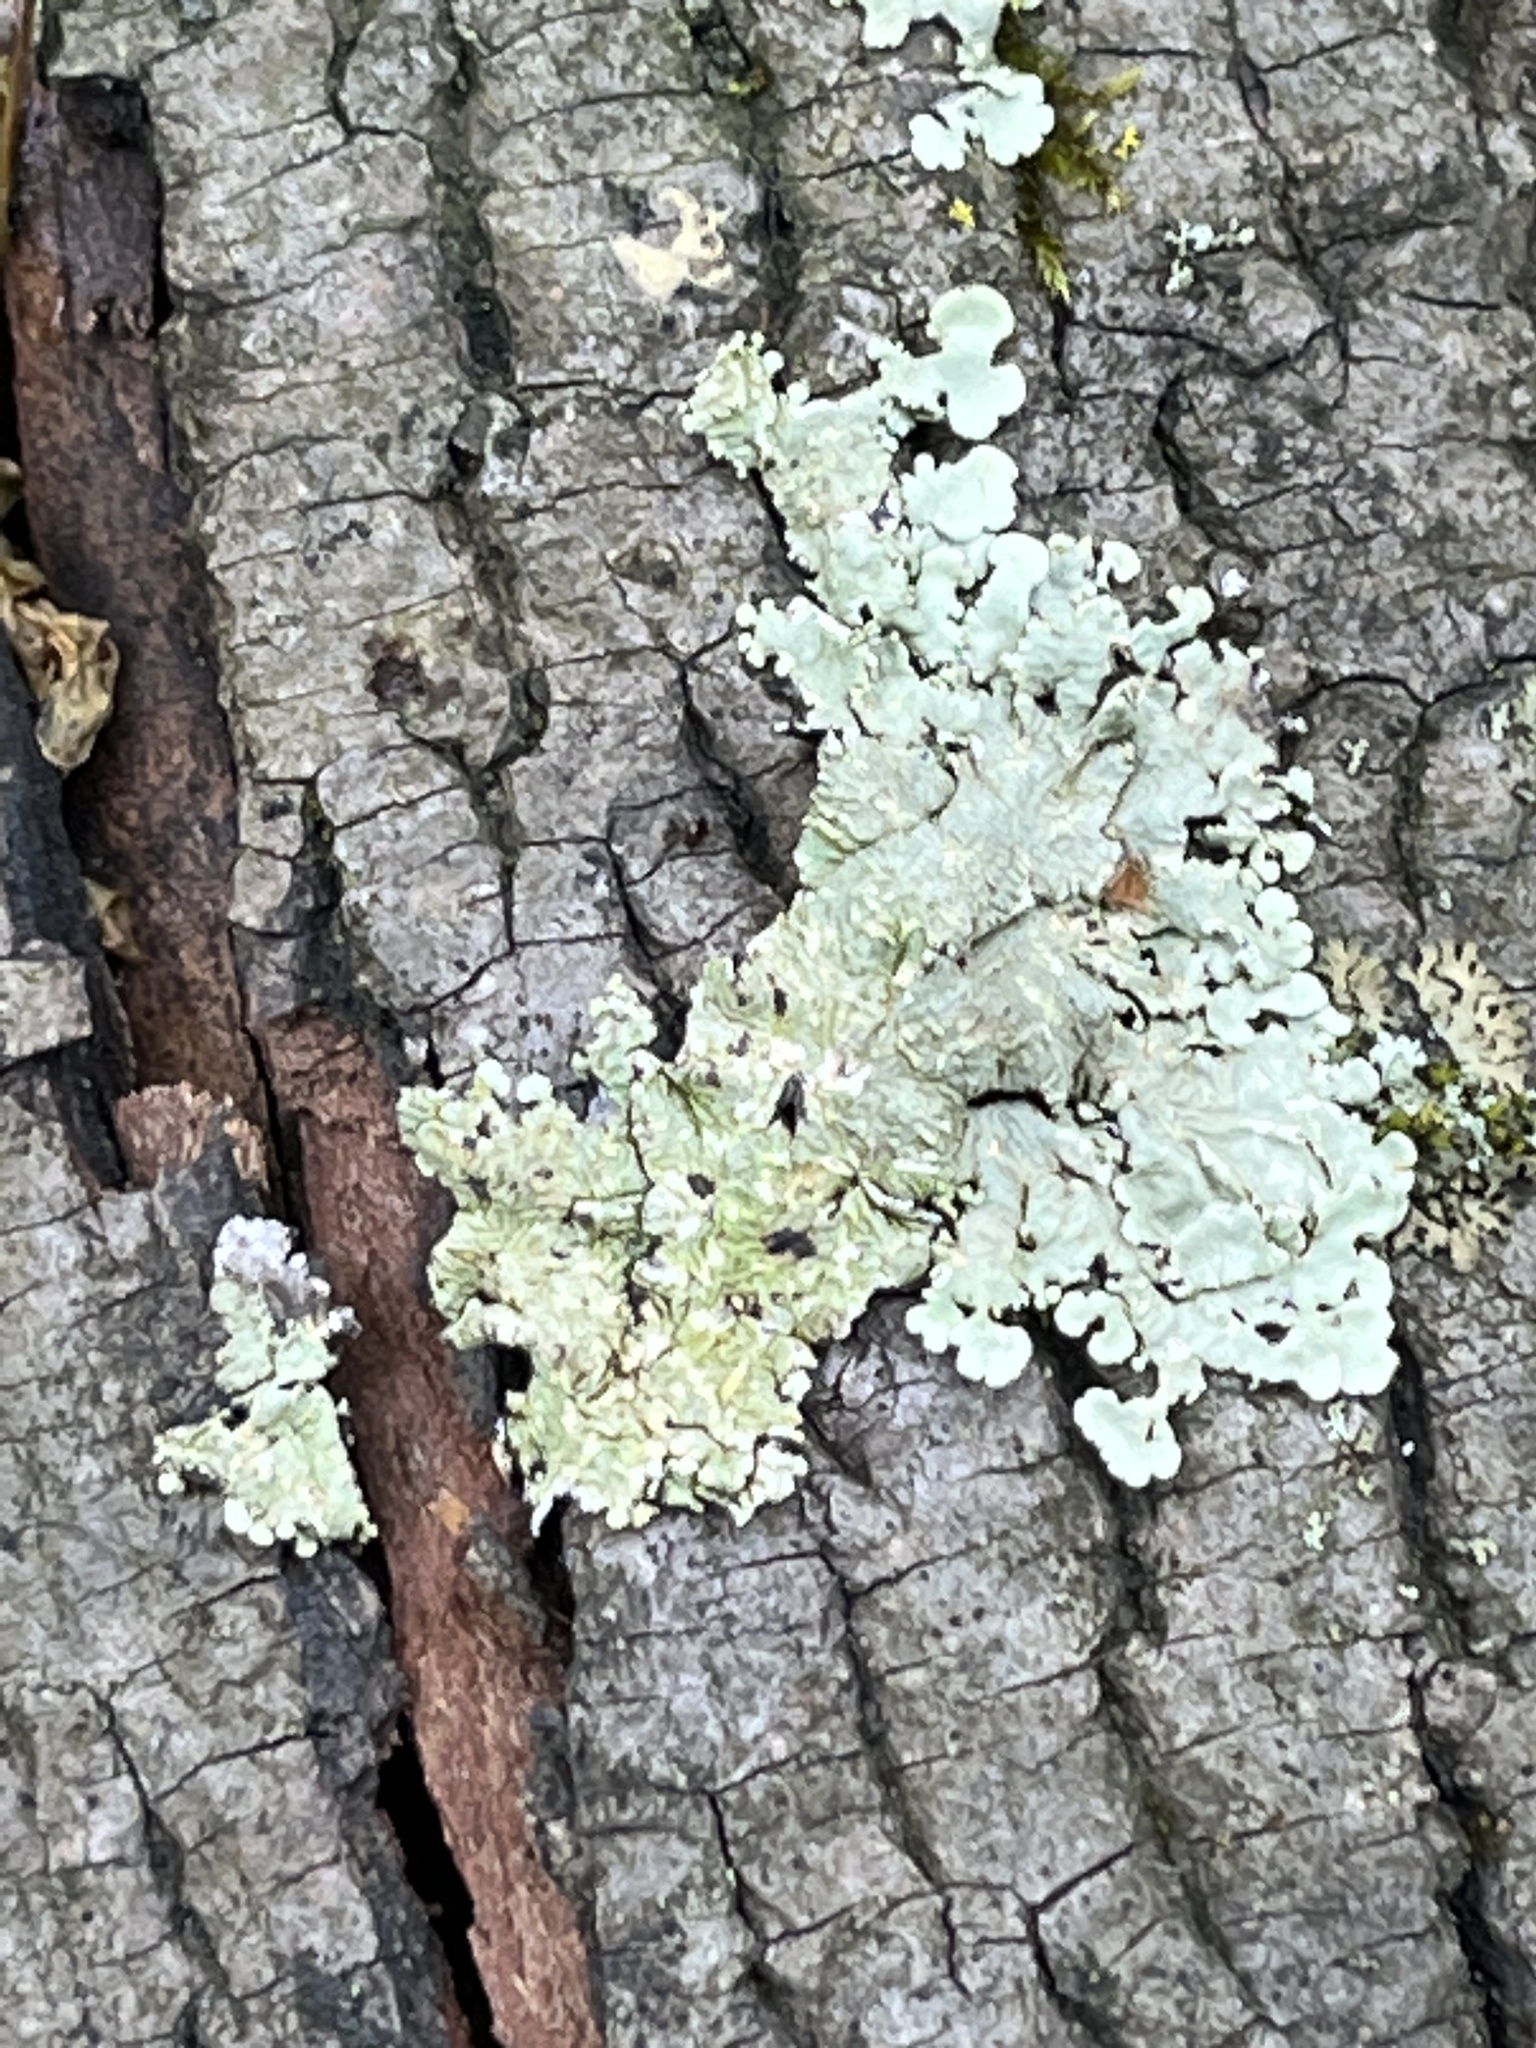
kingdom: Fungi
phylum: Ascomycota
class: Lecanoromycetes
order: Lecanorales
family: Parmeliaceae
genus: Flavoparmelia
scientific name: Flavoparmelia caperata
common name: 40-mile per hour lichen
